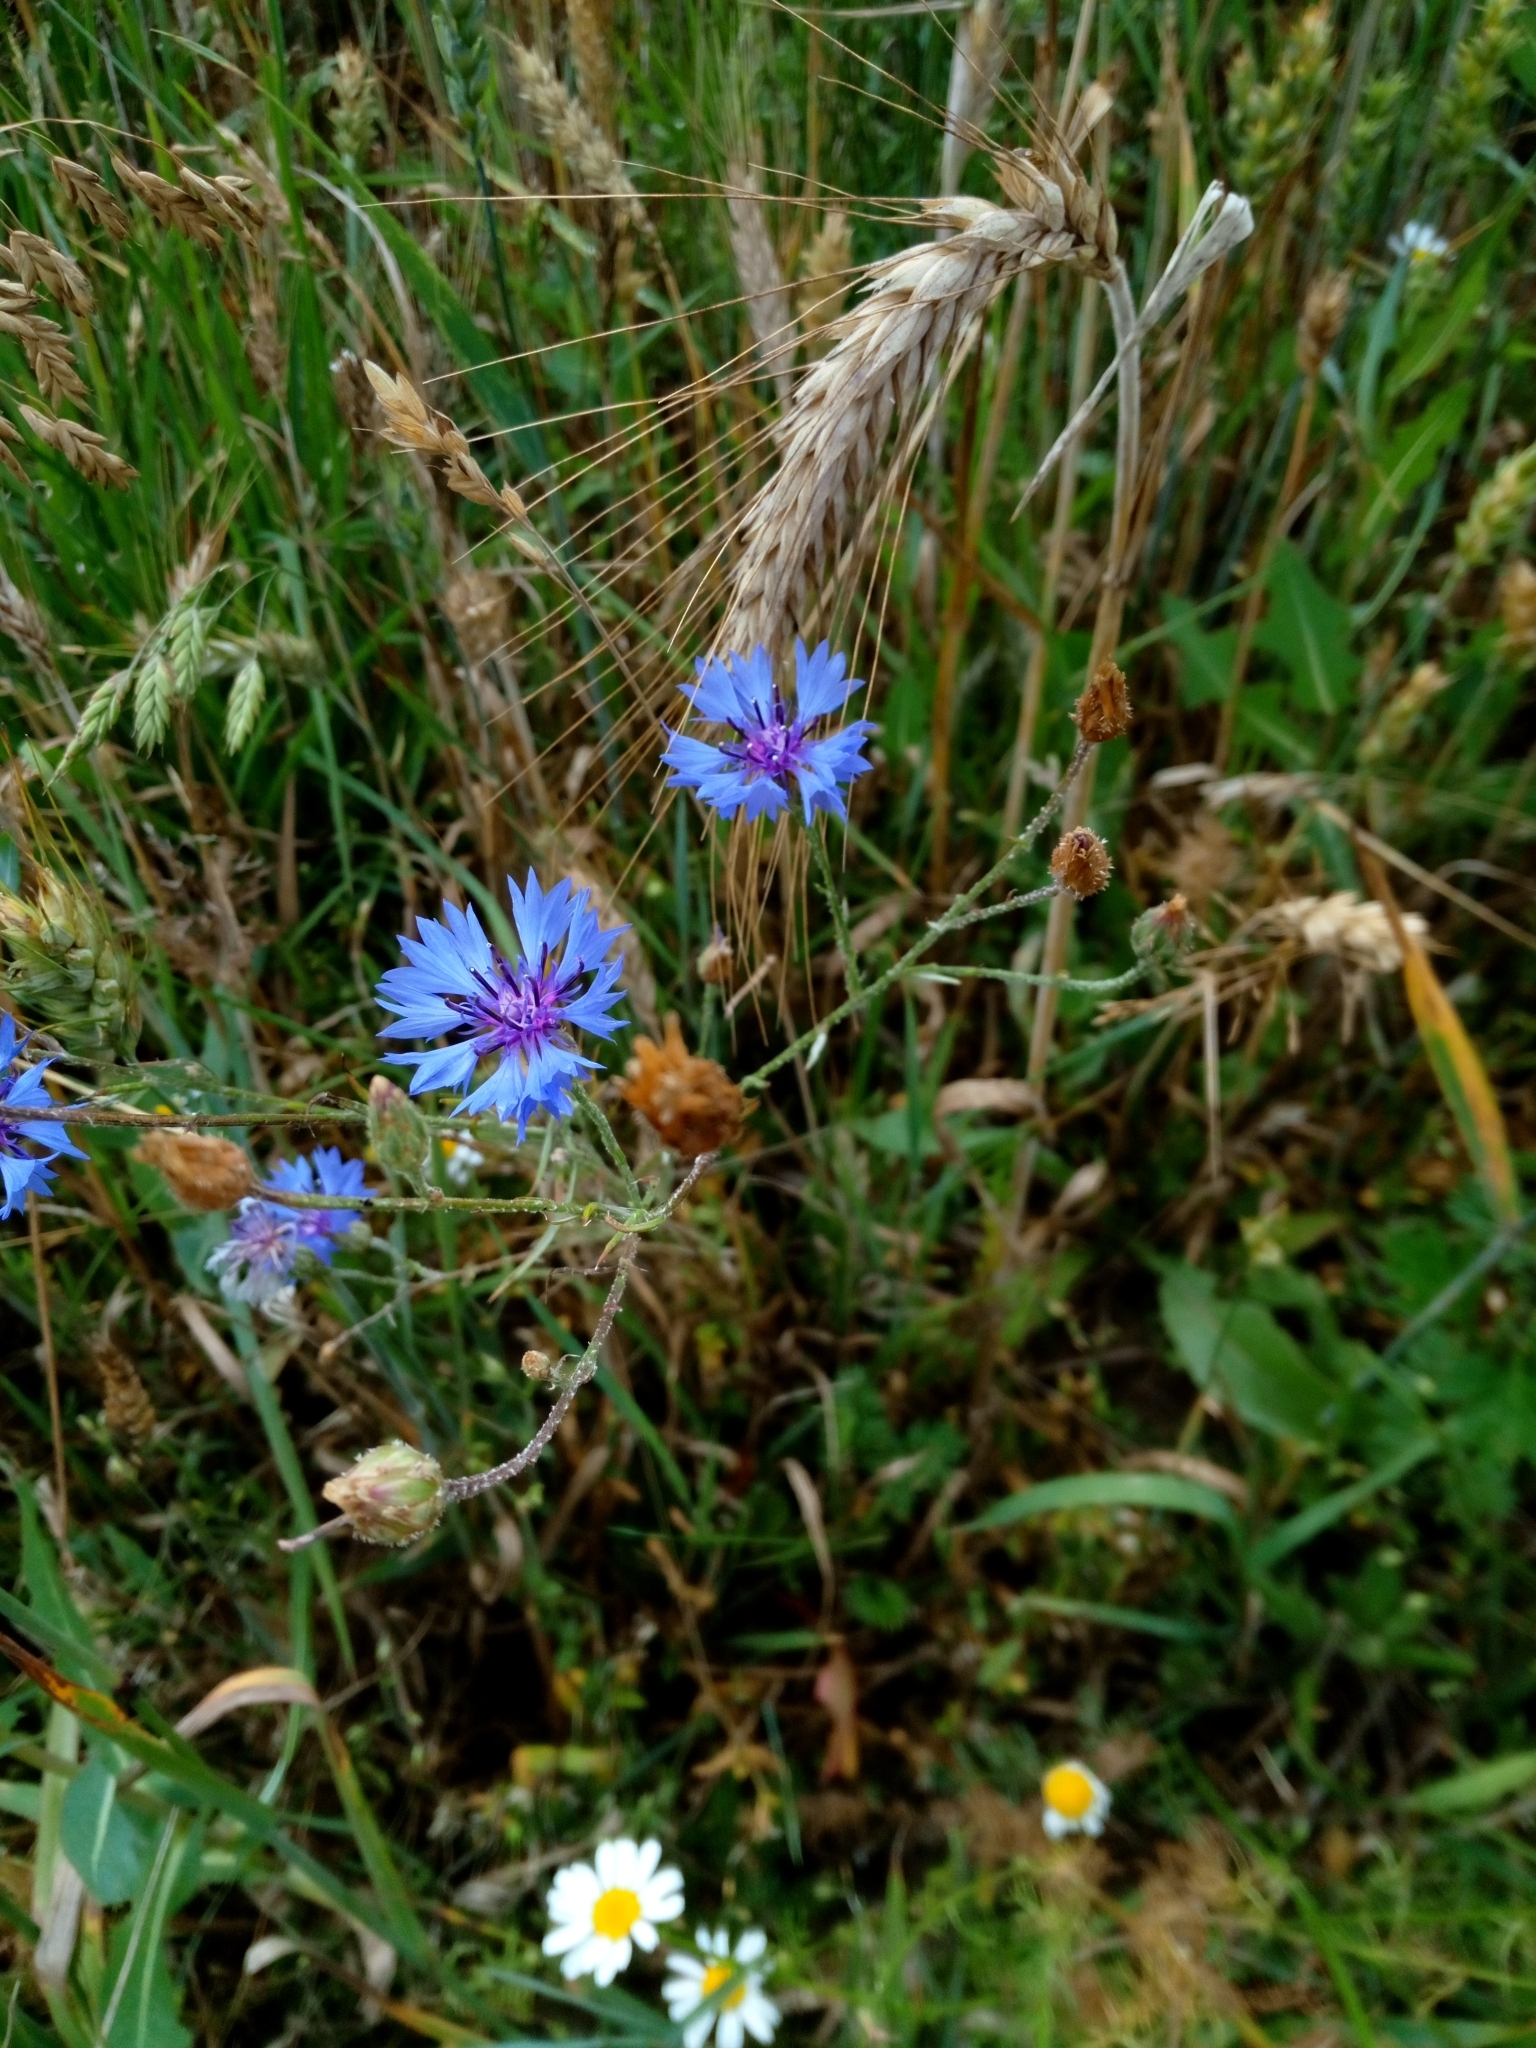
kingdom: Plantae
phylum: Tracheophyta
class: Magnoliopsida
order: Asterales
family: Asteraceae
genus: Centaurea
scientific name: Centaurea cyanus
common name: Cornflower
